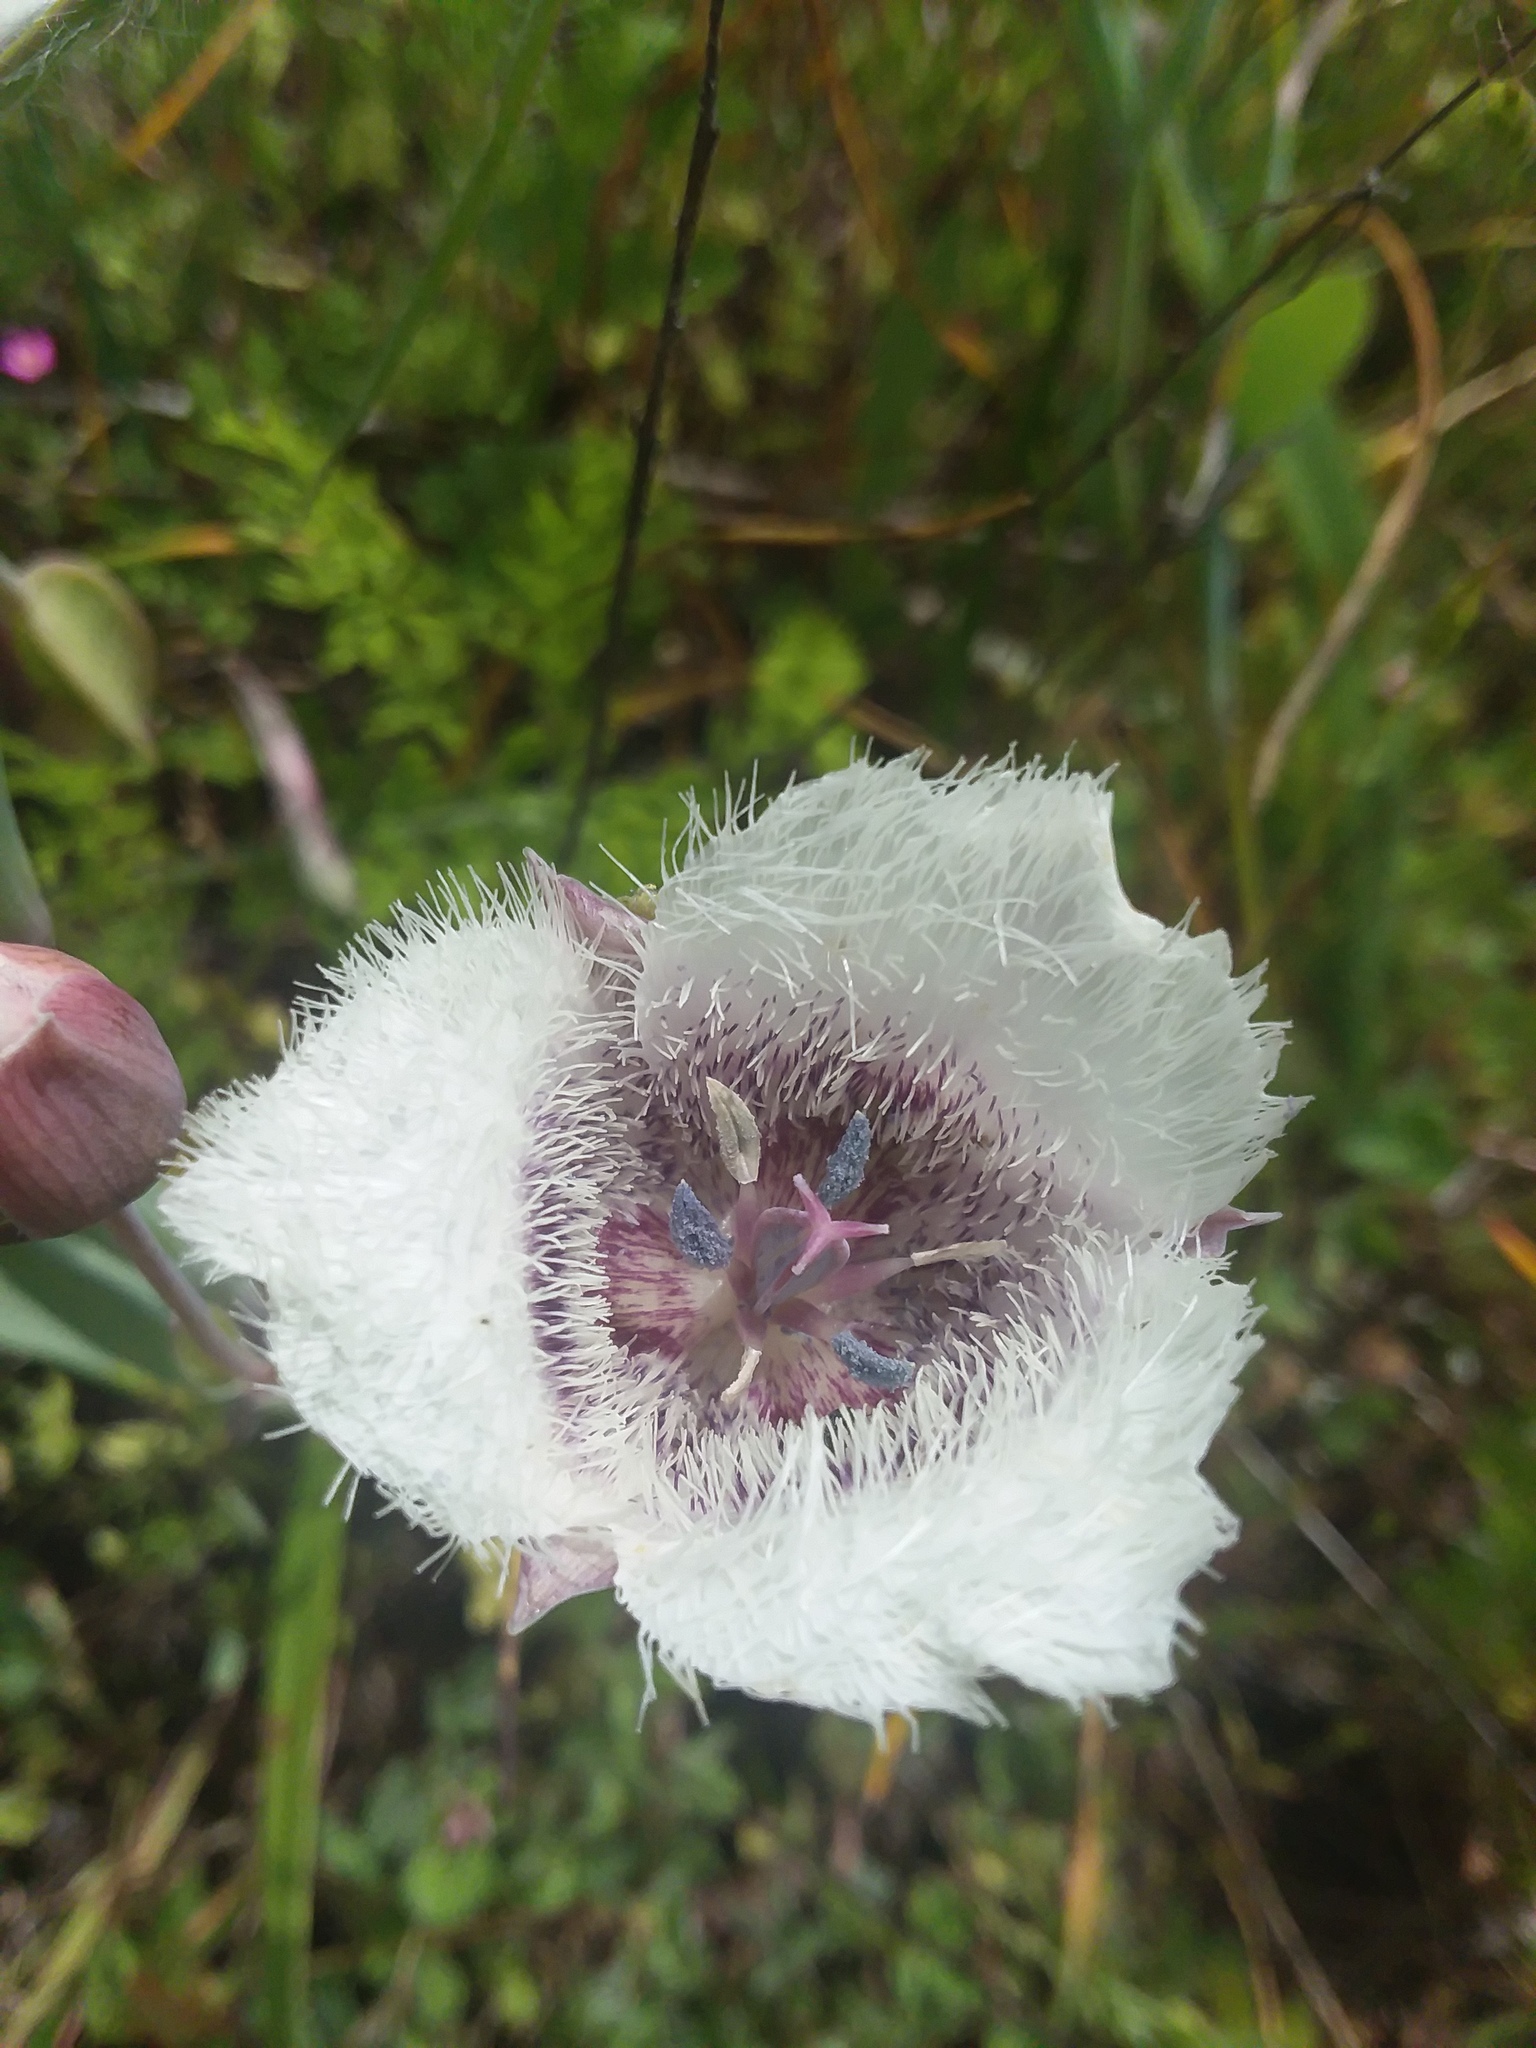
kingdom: Plantae
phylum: Tracheophyta
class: Liliopsida
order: Liliales
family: Liliaceae
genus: Calochortus
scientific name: Calochortus tolmiei
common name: Pussy-ears
